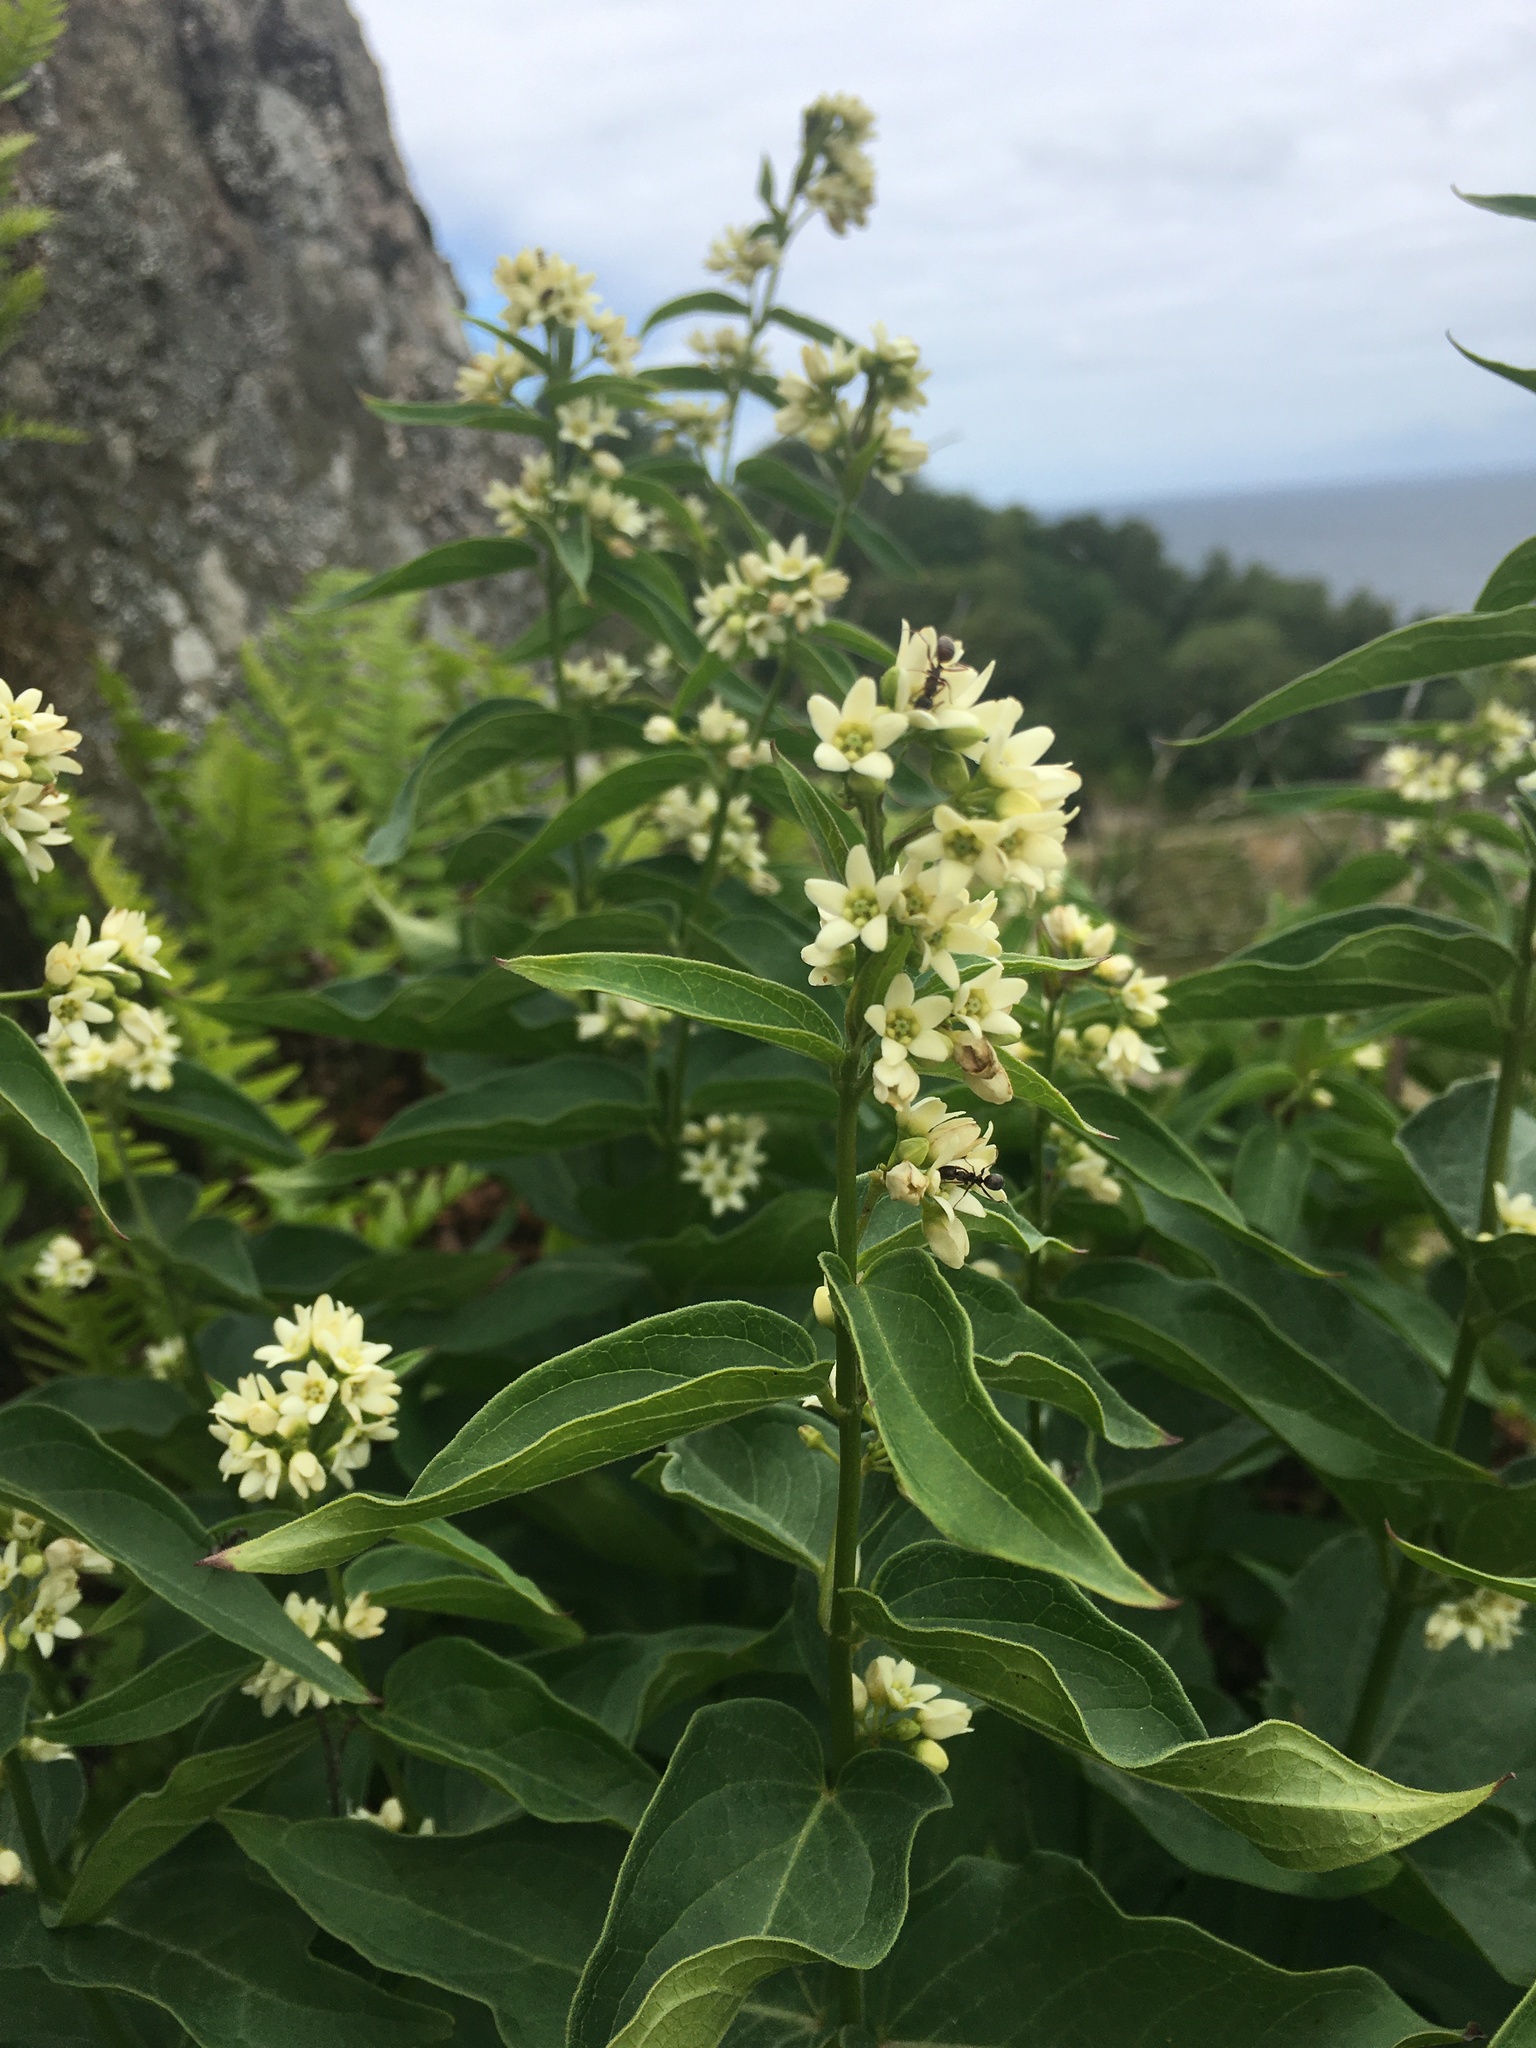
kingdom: Plantae
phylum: Tracheophyta
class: Magnoliopsida
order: Gentianales
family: Apocynaceae
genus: Vincetoxicum
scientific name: Vincetoxicum hirundinaria
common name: White swallowwort
